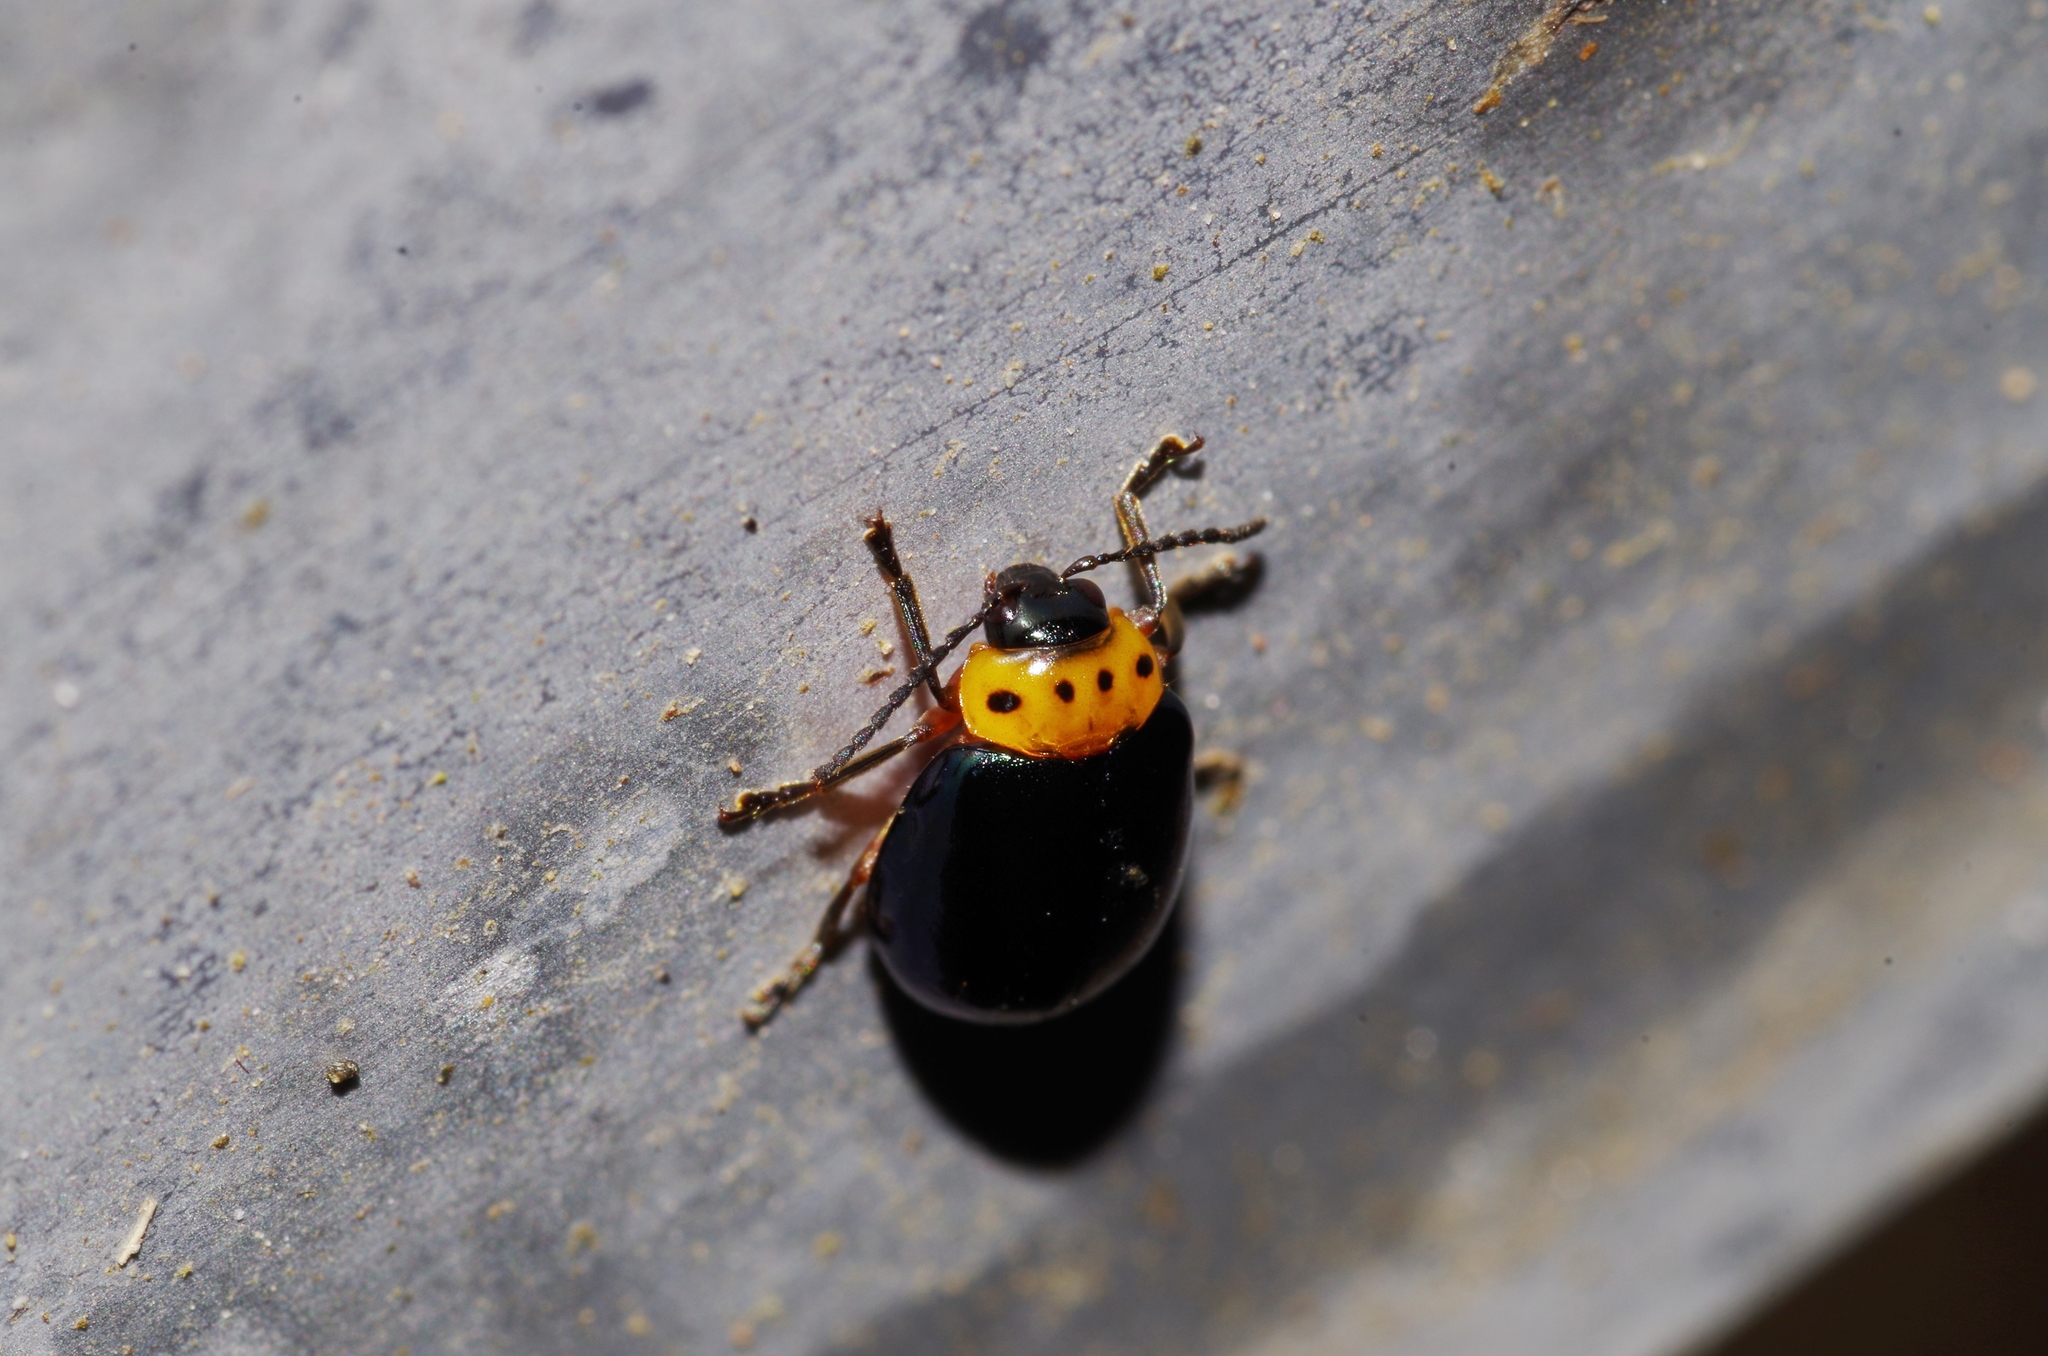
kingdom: Animalia
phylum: Arthropoda
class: Insecta
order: Coleoptera
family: Chrysomelidae
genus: Morphosphaera
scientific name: Morphosphaera caerulea
